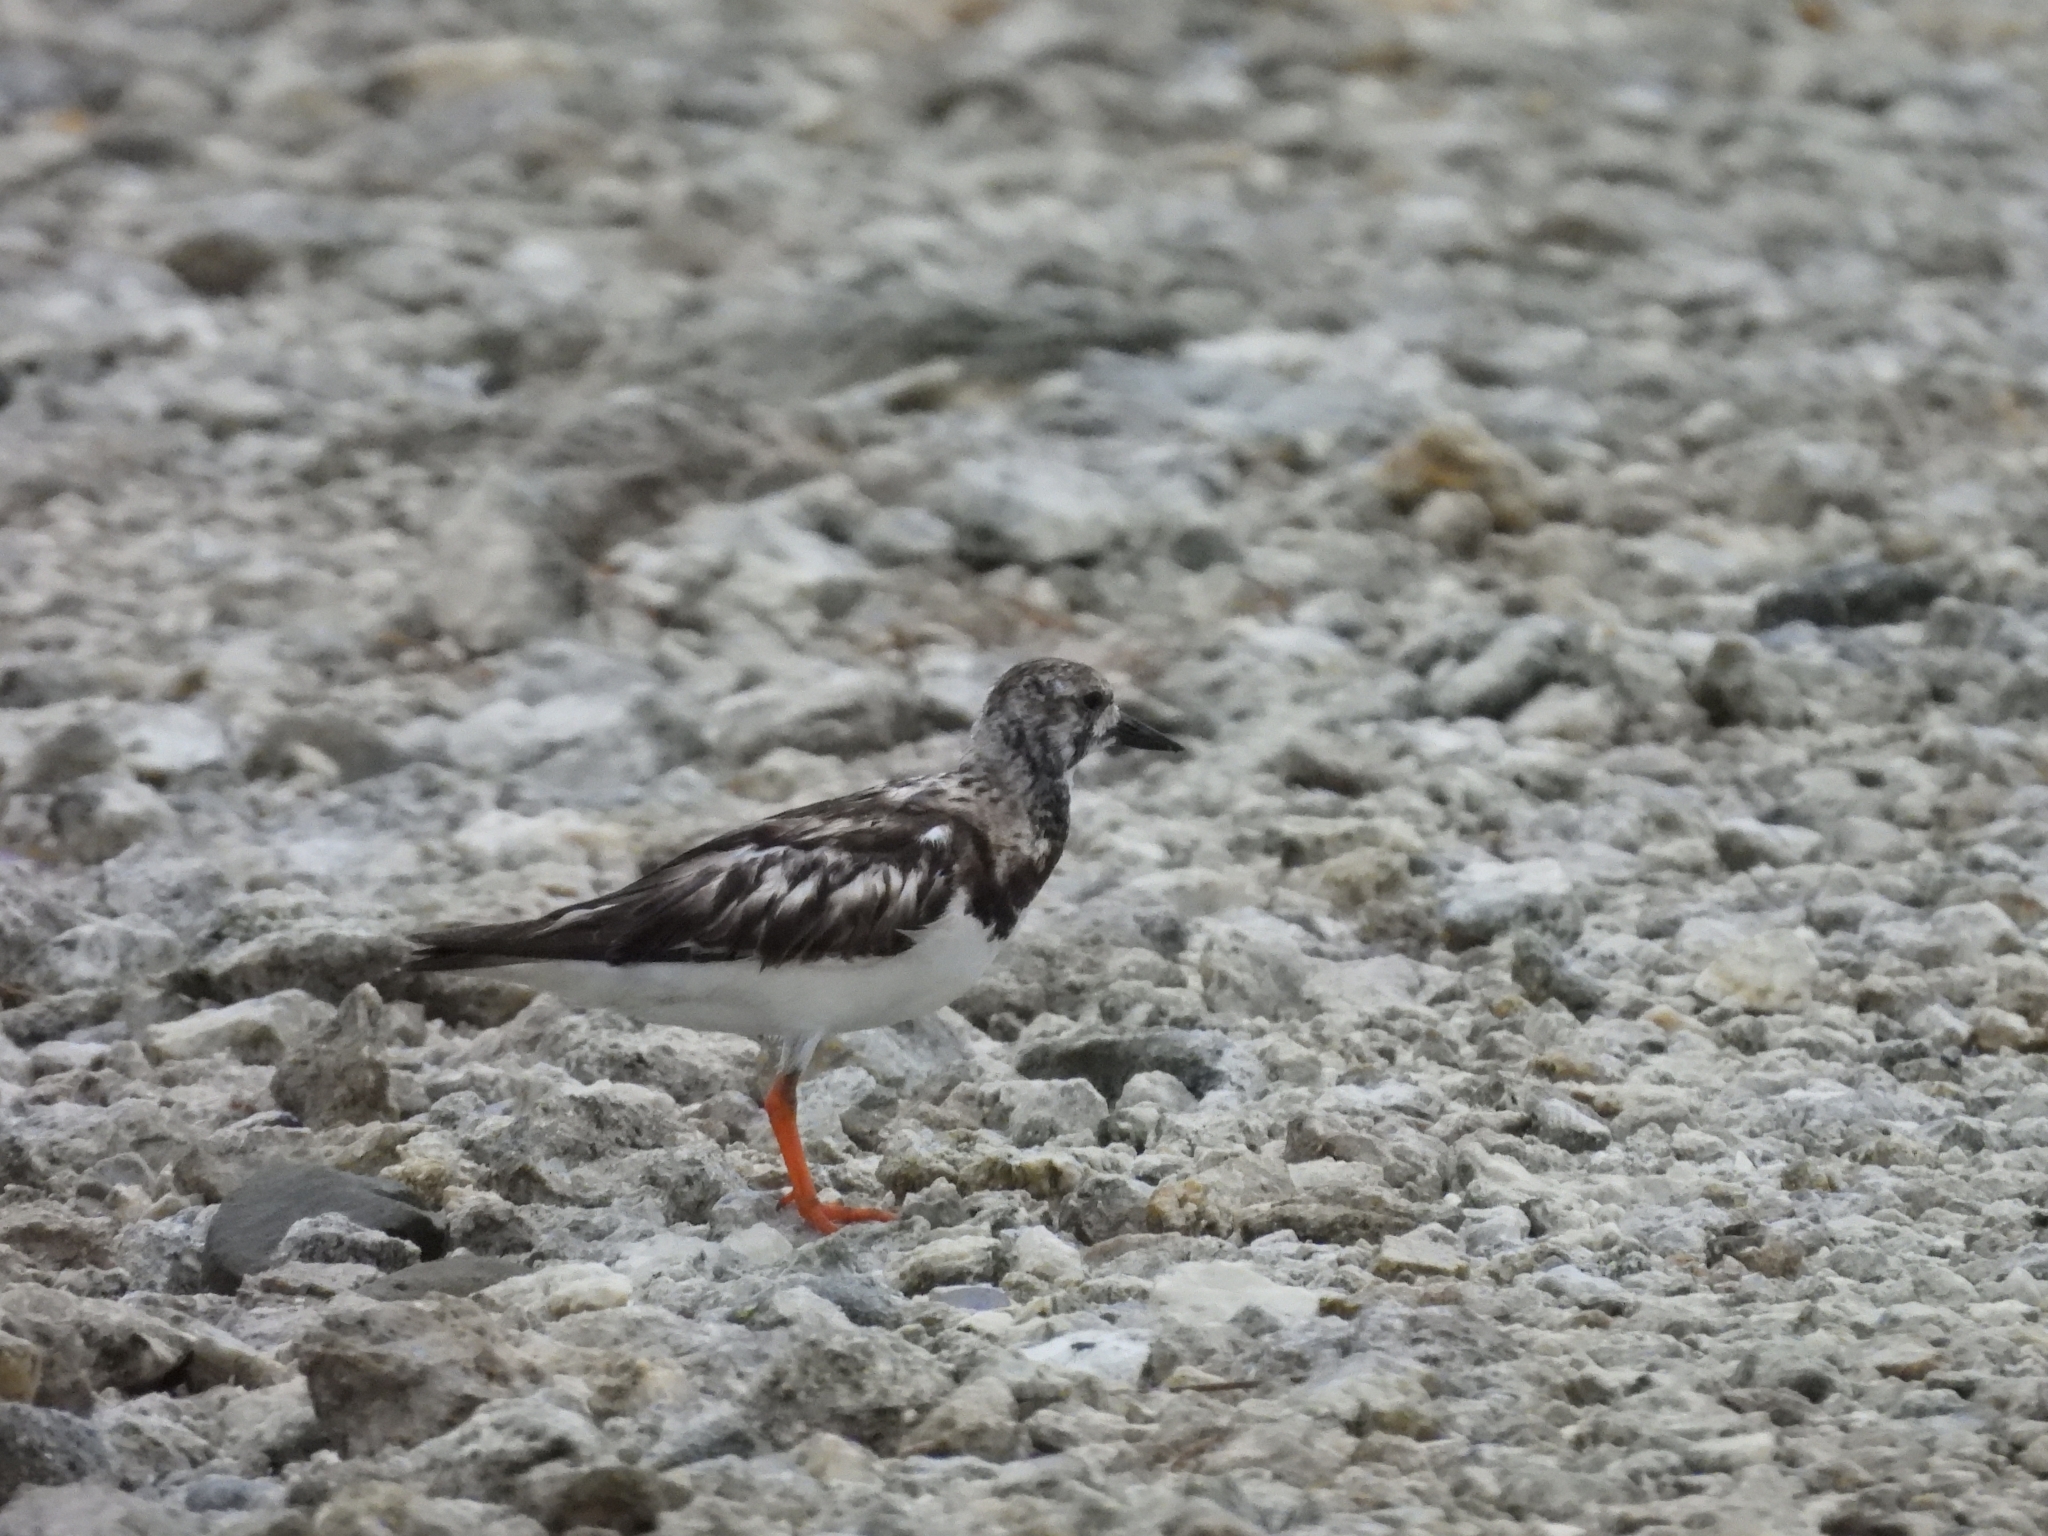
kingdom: Animalia
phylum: Chordata
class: Aves
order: Charadriiformes
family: Scolopacidae
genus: Arenaria
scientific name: Arenaria interpres
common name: Ruddy turnstone
